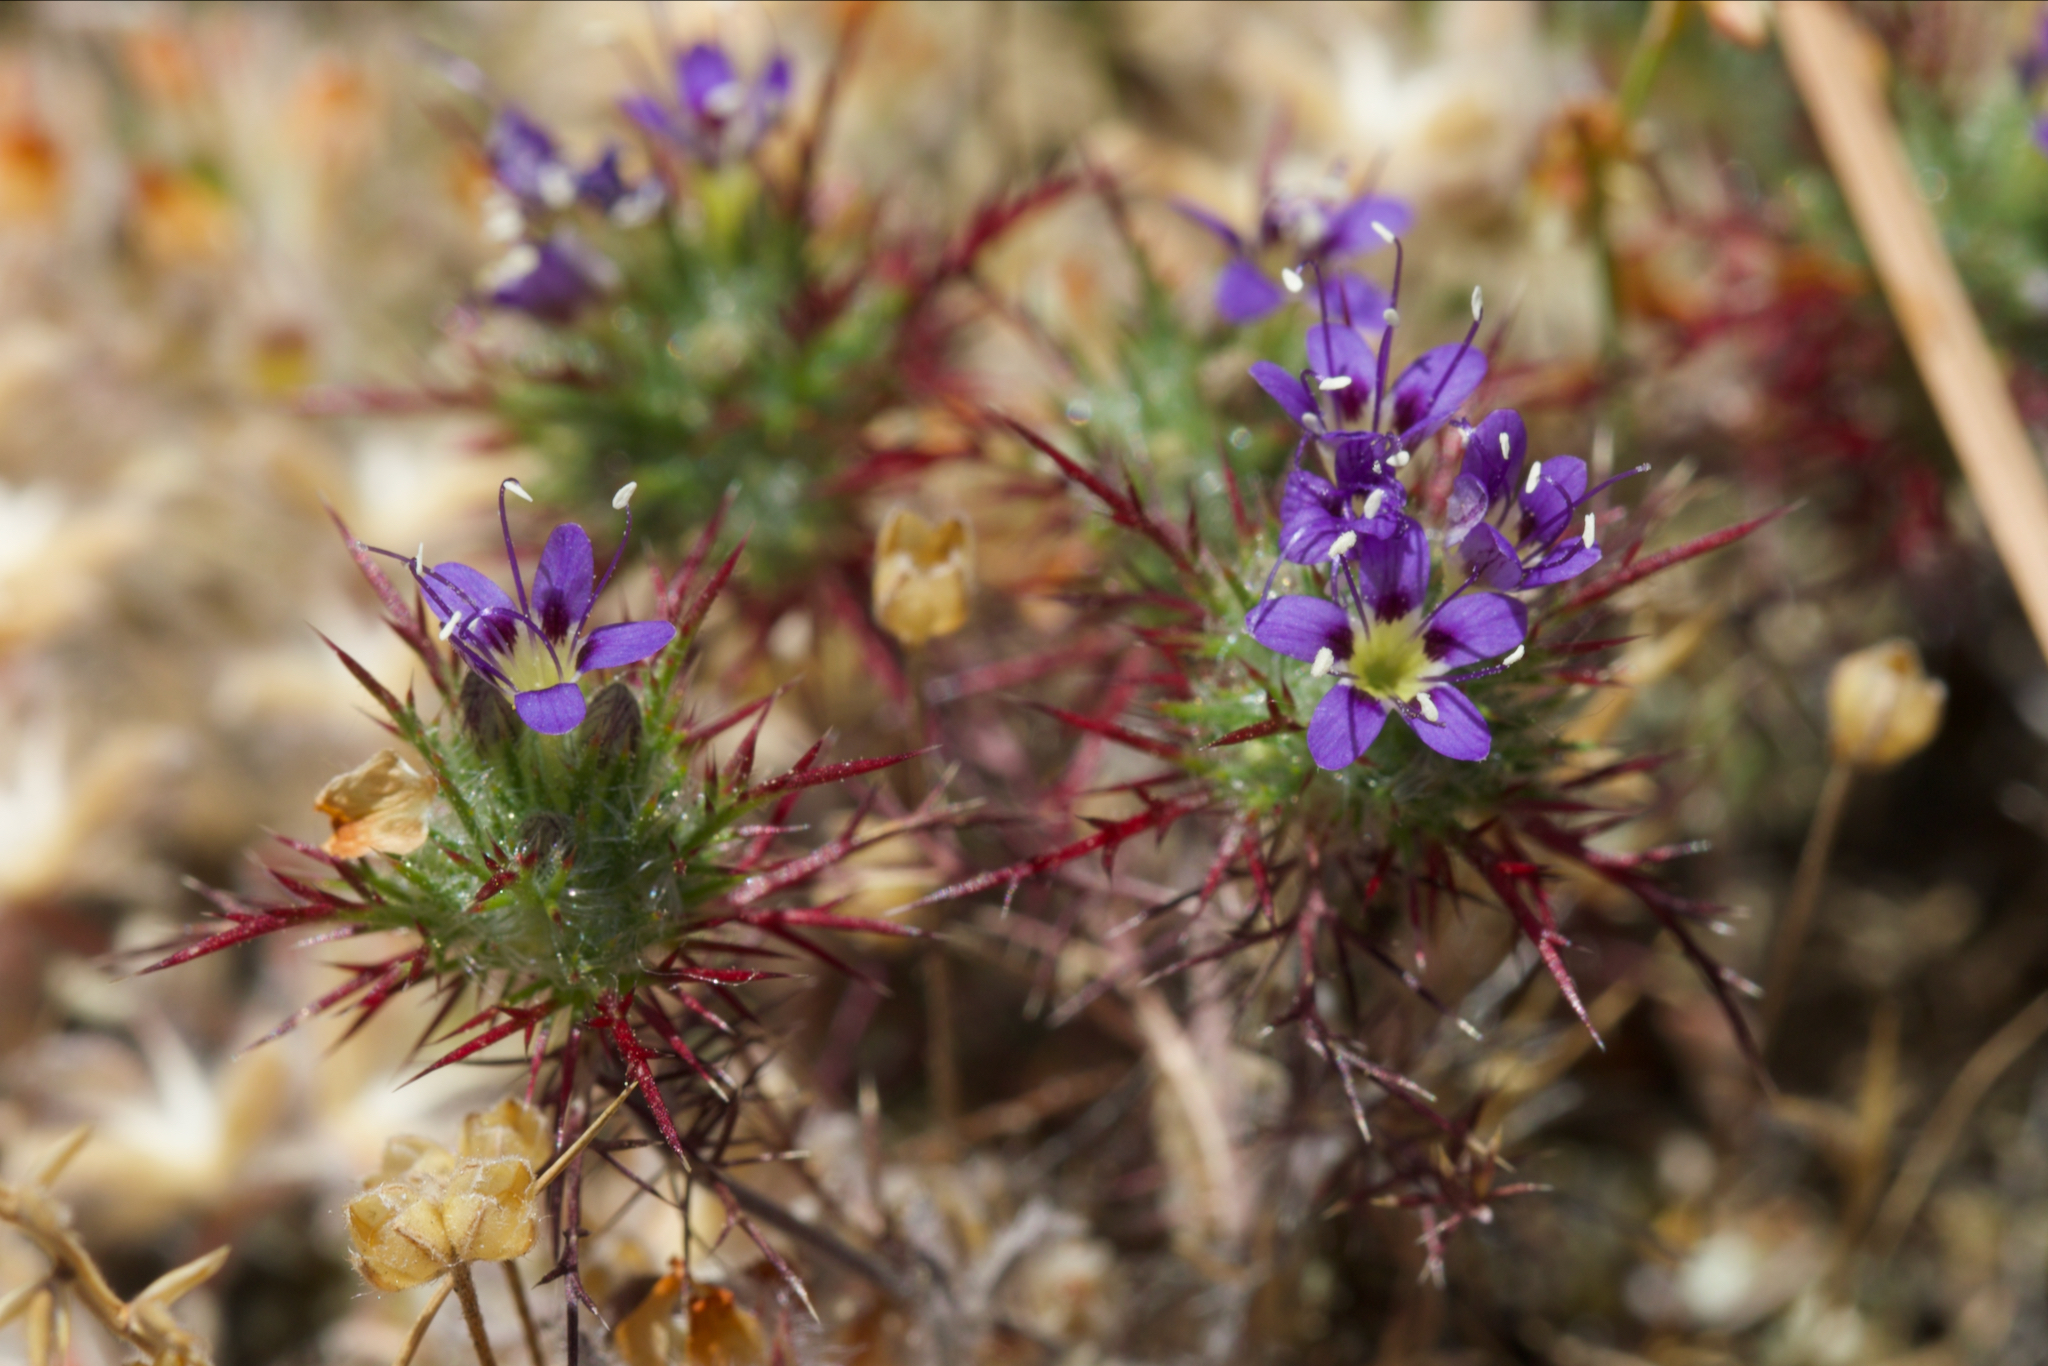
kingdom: Plantae
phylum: Tracheophyta
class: Magnoliopsida
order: Ericales
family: Polemoniaceae
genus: Navarretia
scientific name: Navarretia jepsonii
